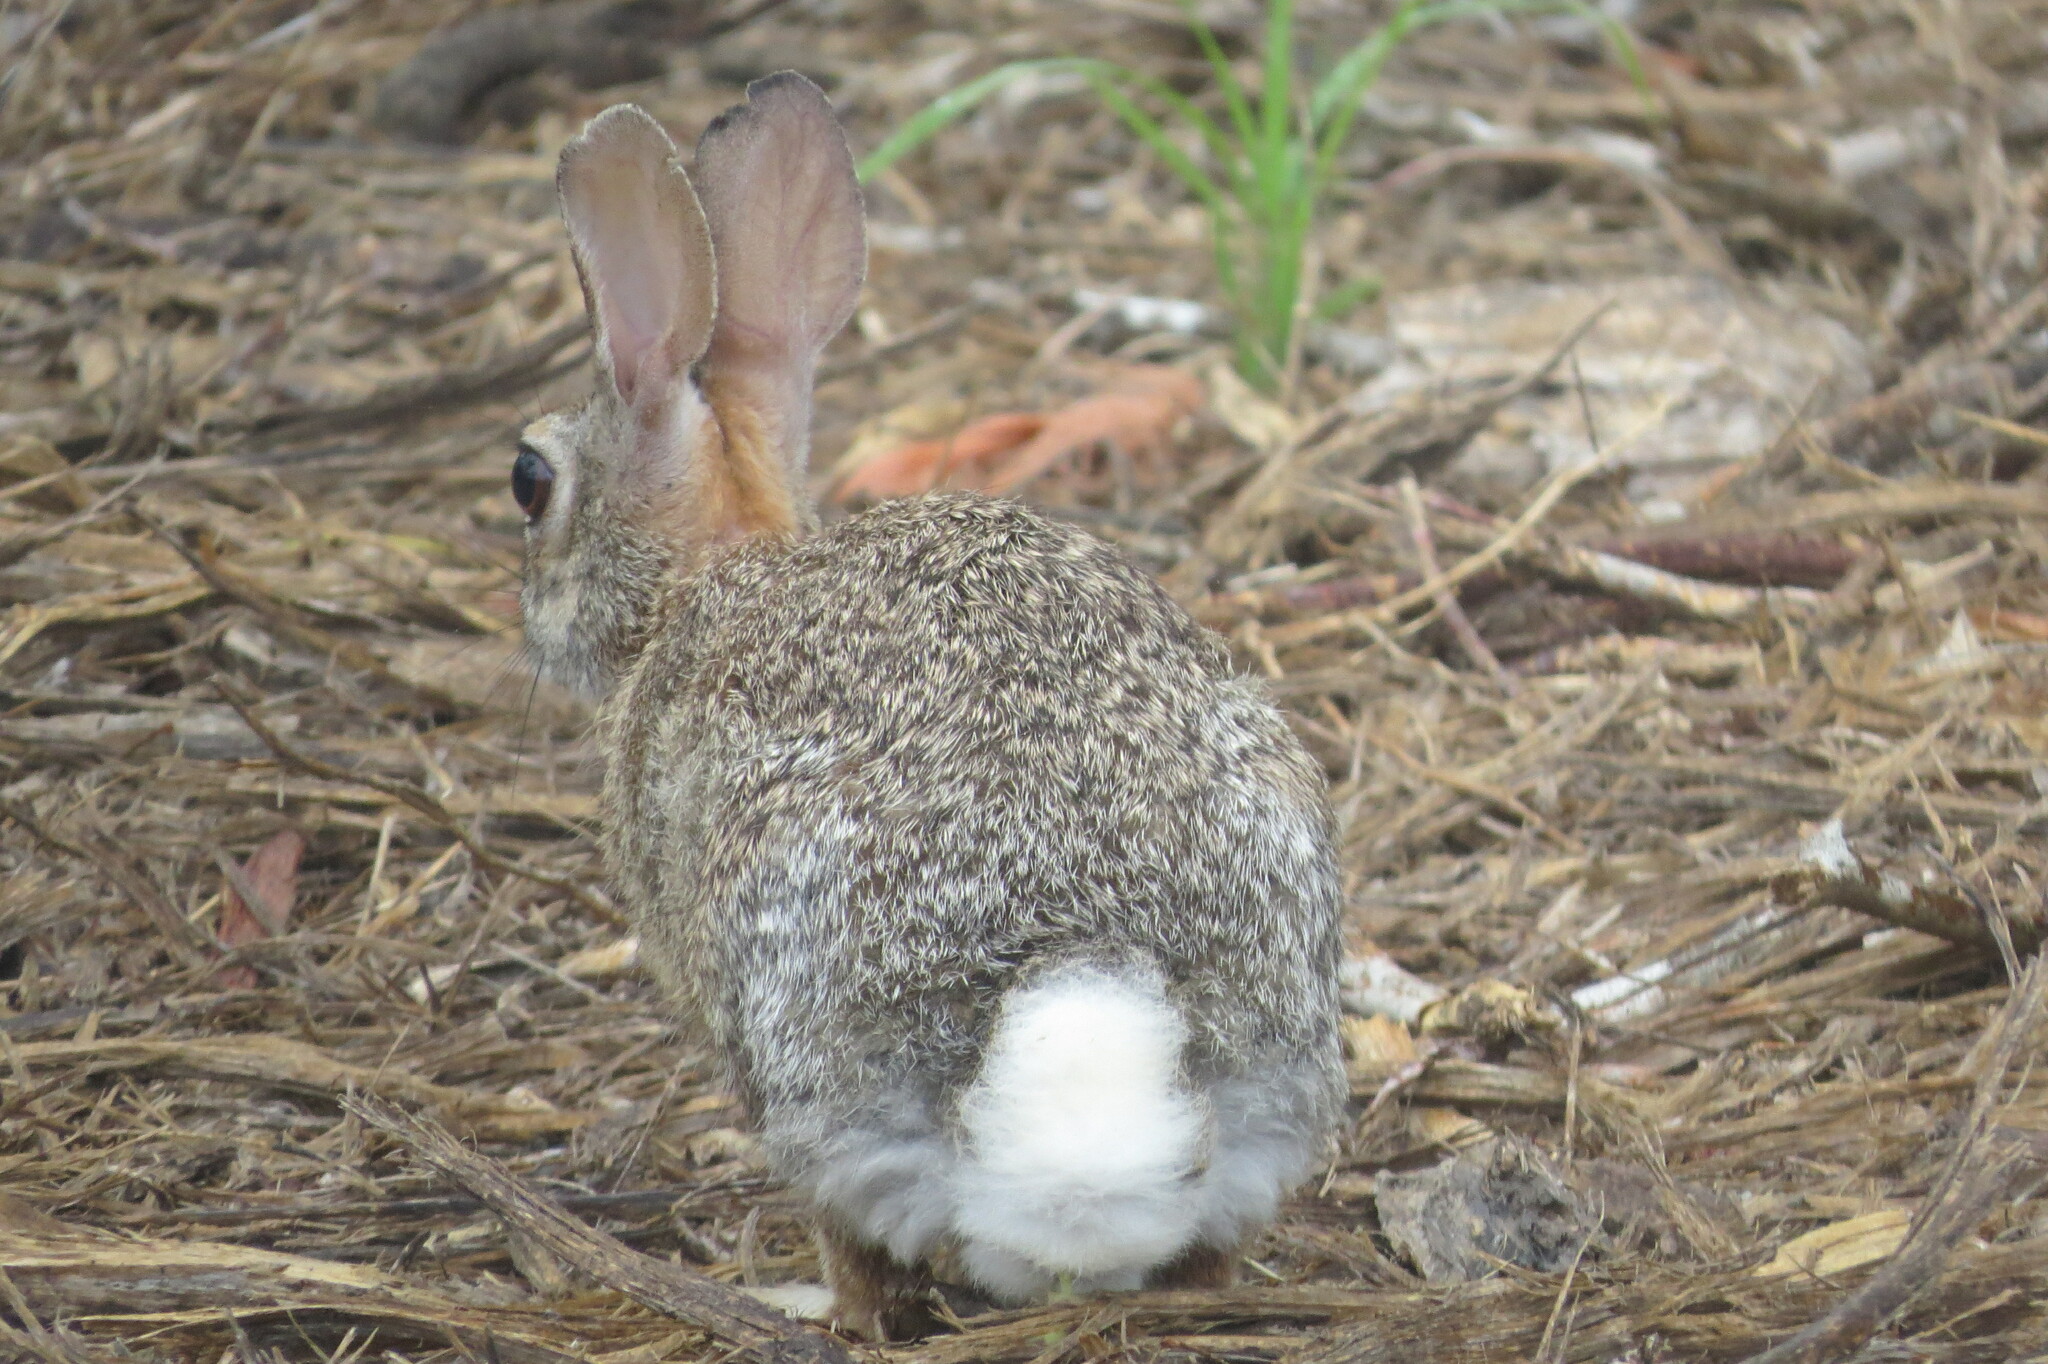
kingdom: Animalia
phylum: Chordata
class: Mammalia
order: Lagomorpha
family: Leporidae
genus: Sylvilagus
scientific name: Sylvilagus floridanus
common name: Eastern cottontail
